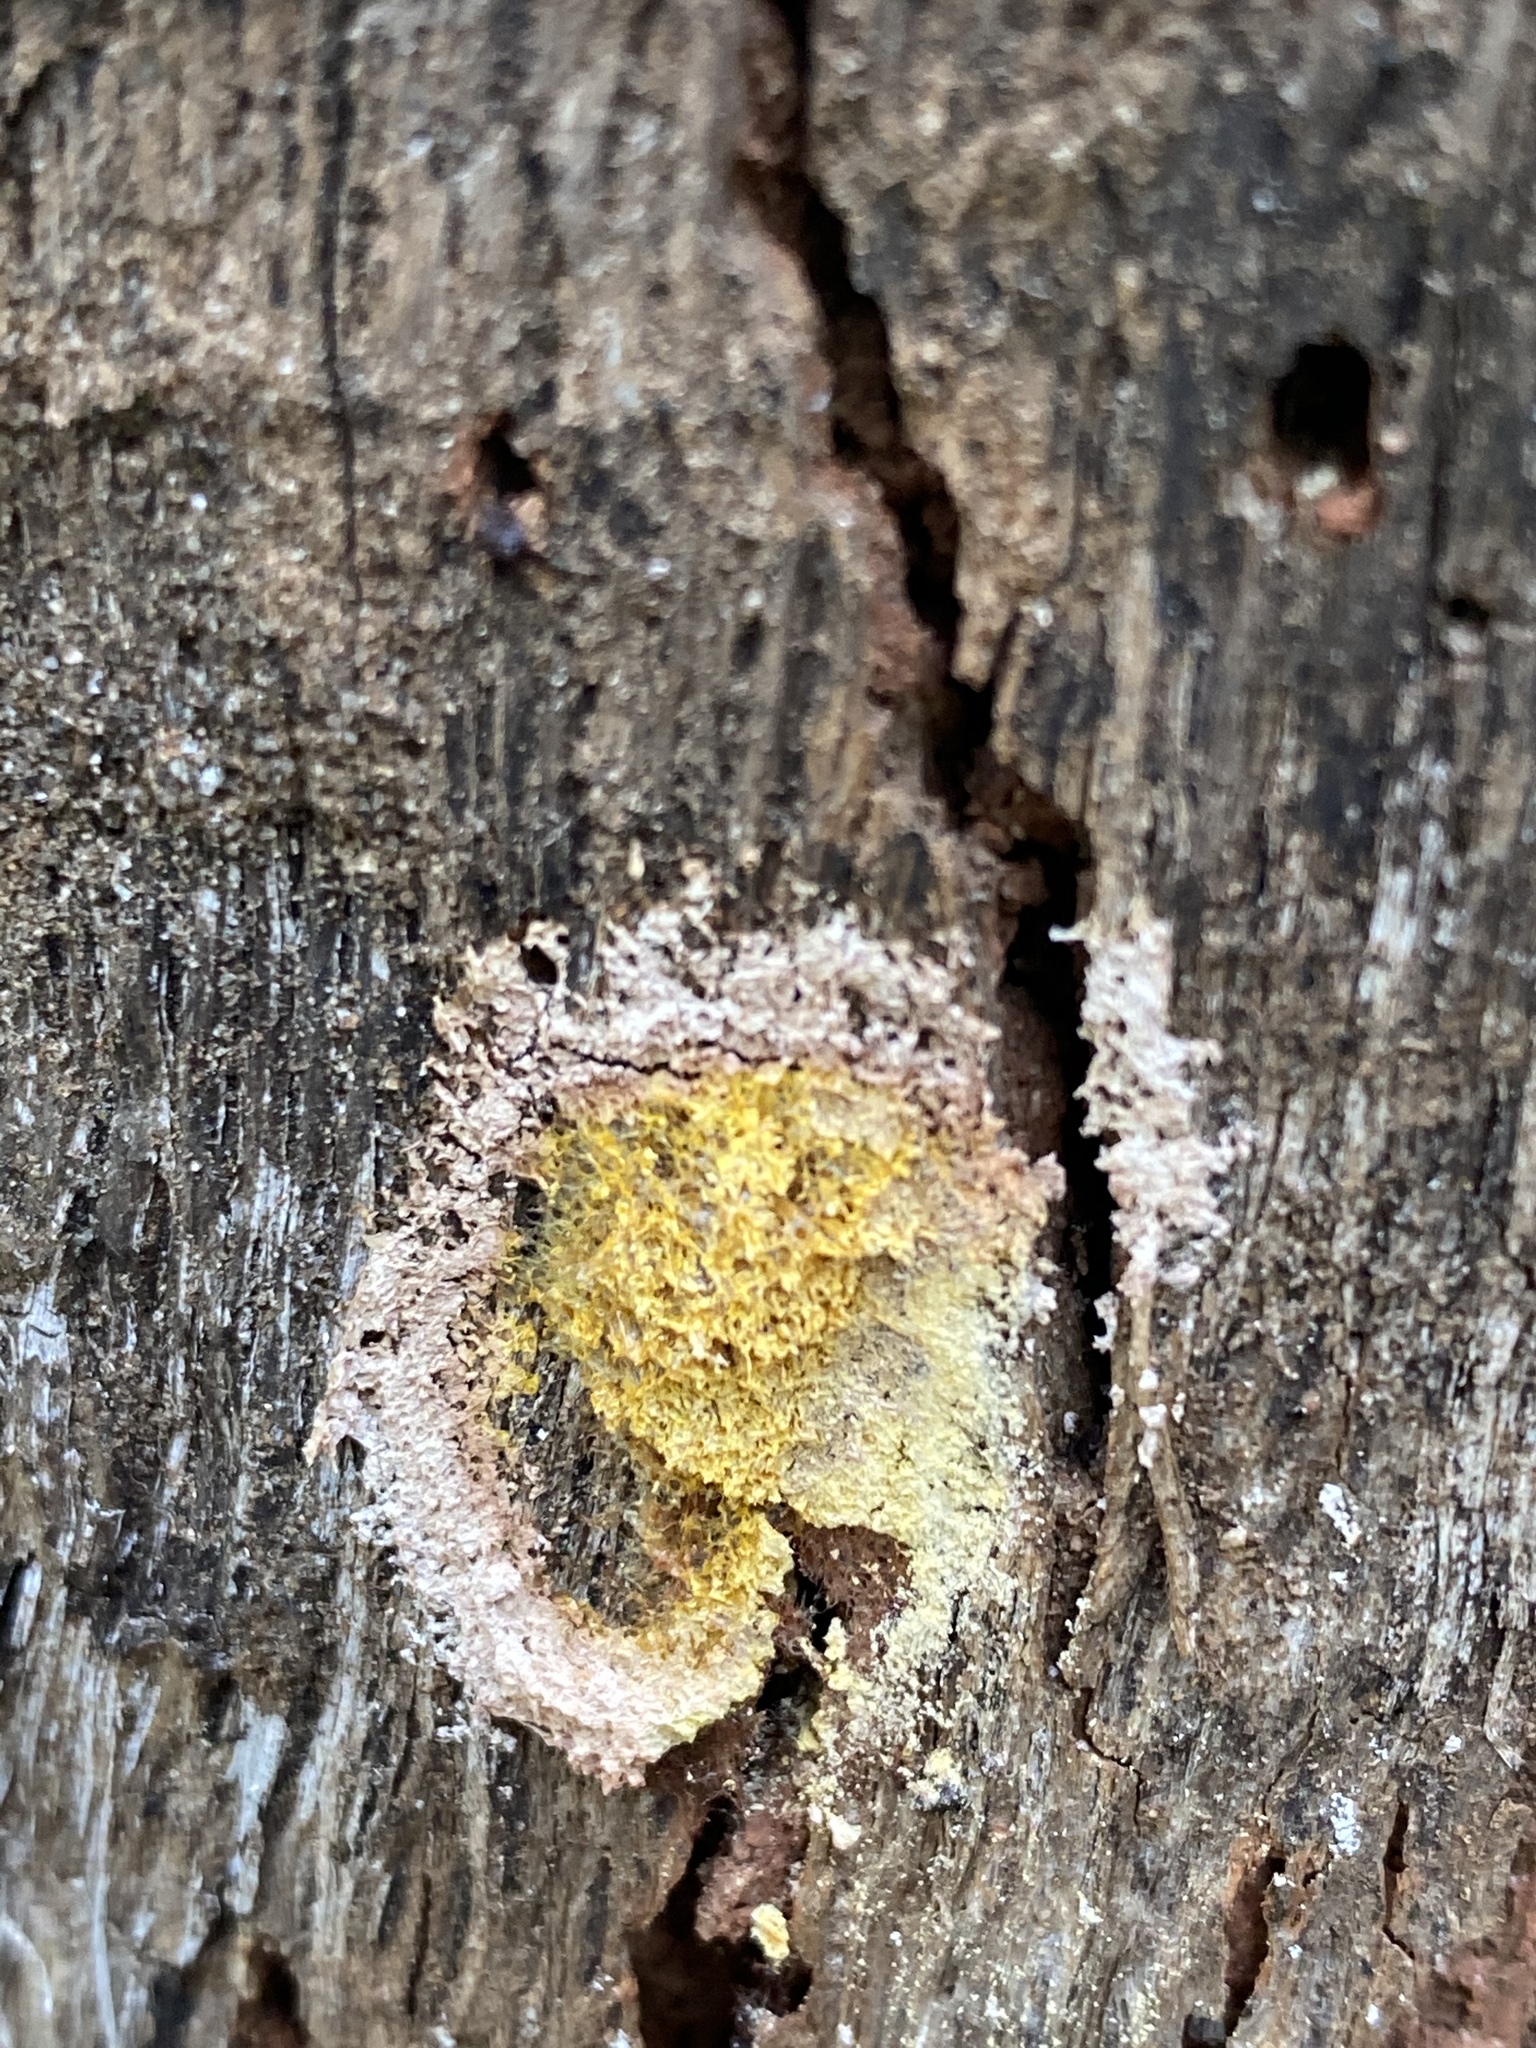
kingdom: Protozoa
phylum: Mycetozoa
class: Myxomycetes
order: Physarales
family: Physaraceae
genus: Fuligo
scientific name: Fuligo septica
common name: Dog vomit slime mold
